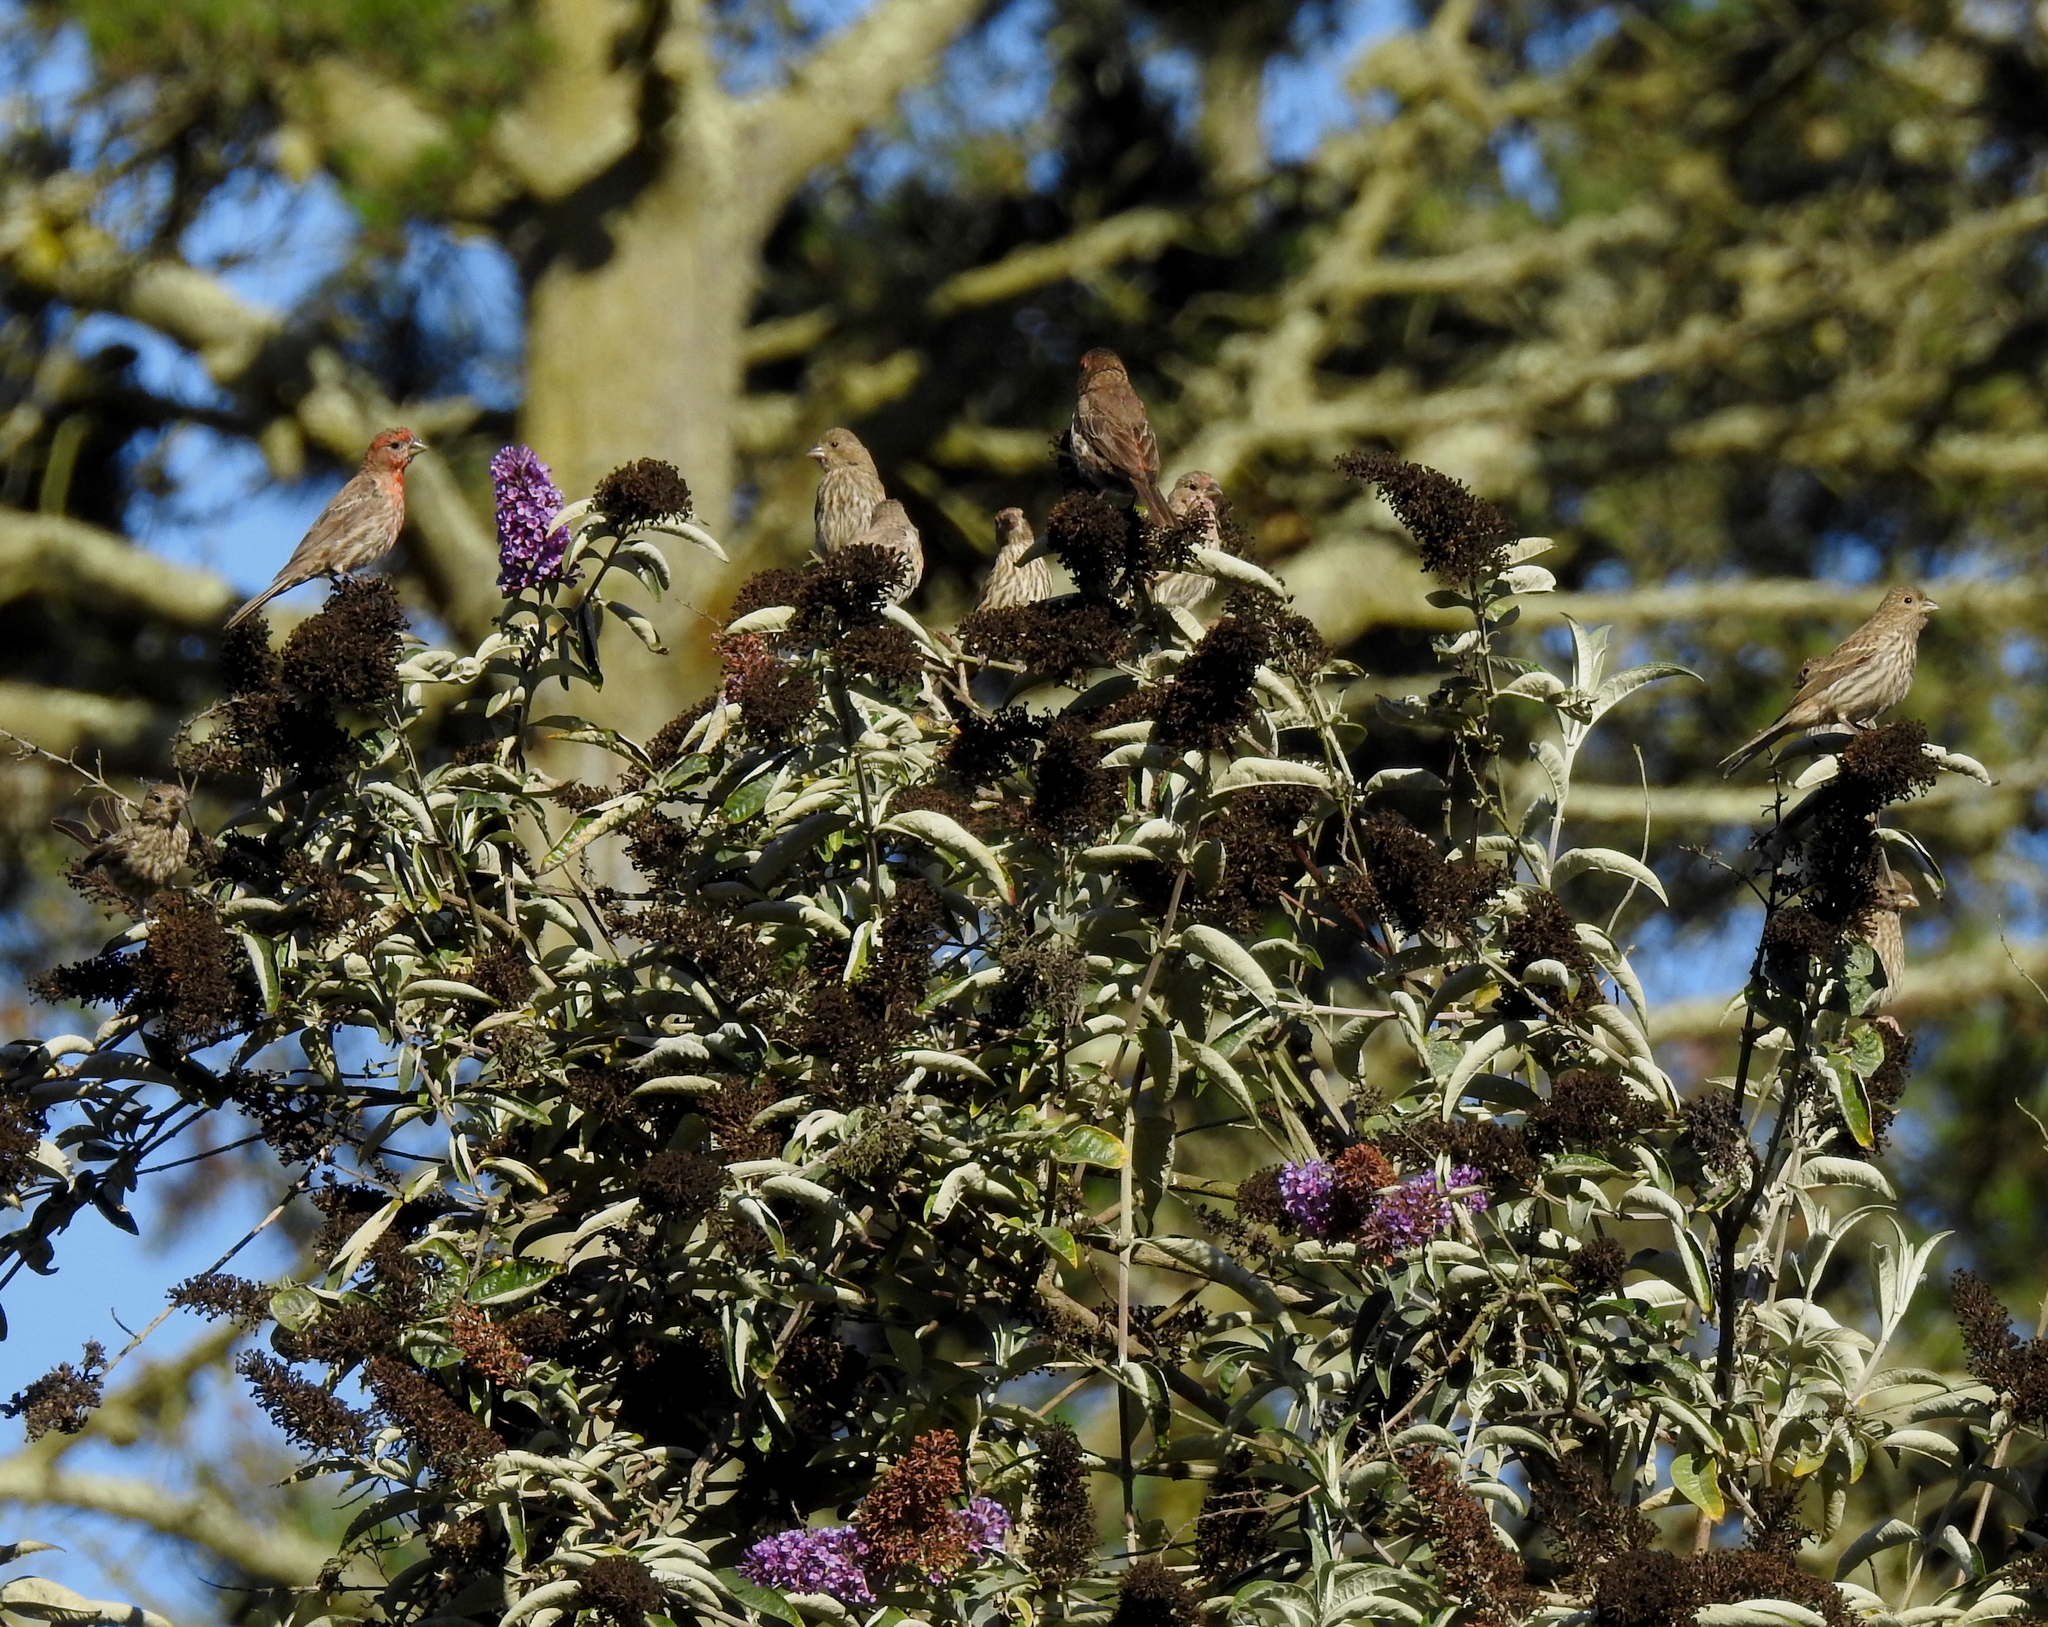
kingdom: Animalia
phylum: Chordata
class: Aves
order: Passeriformes
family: Fringillidae
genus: Haemorhous
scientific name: Haemorhous mexicanus
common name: House finch
